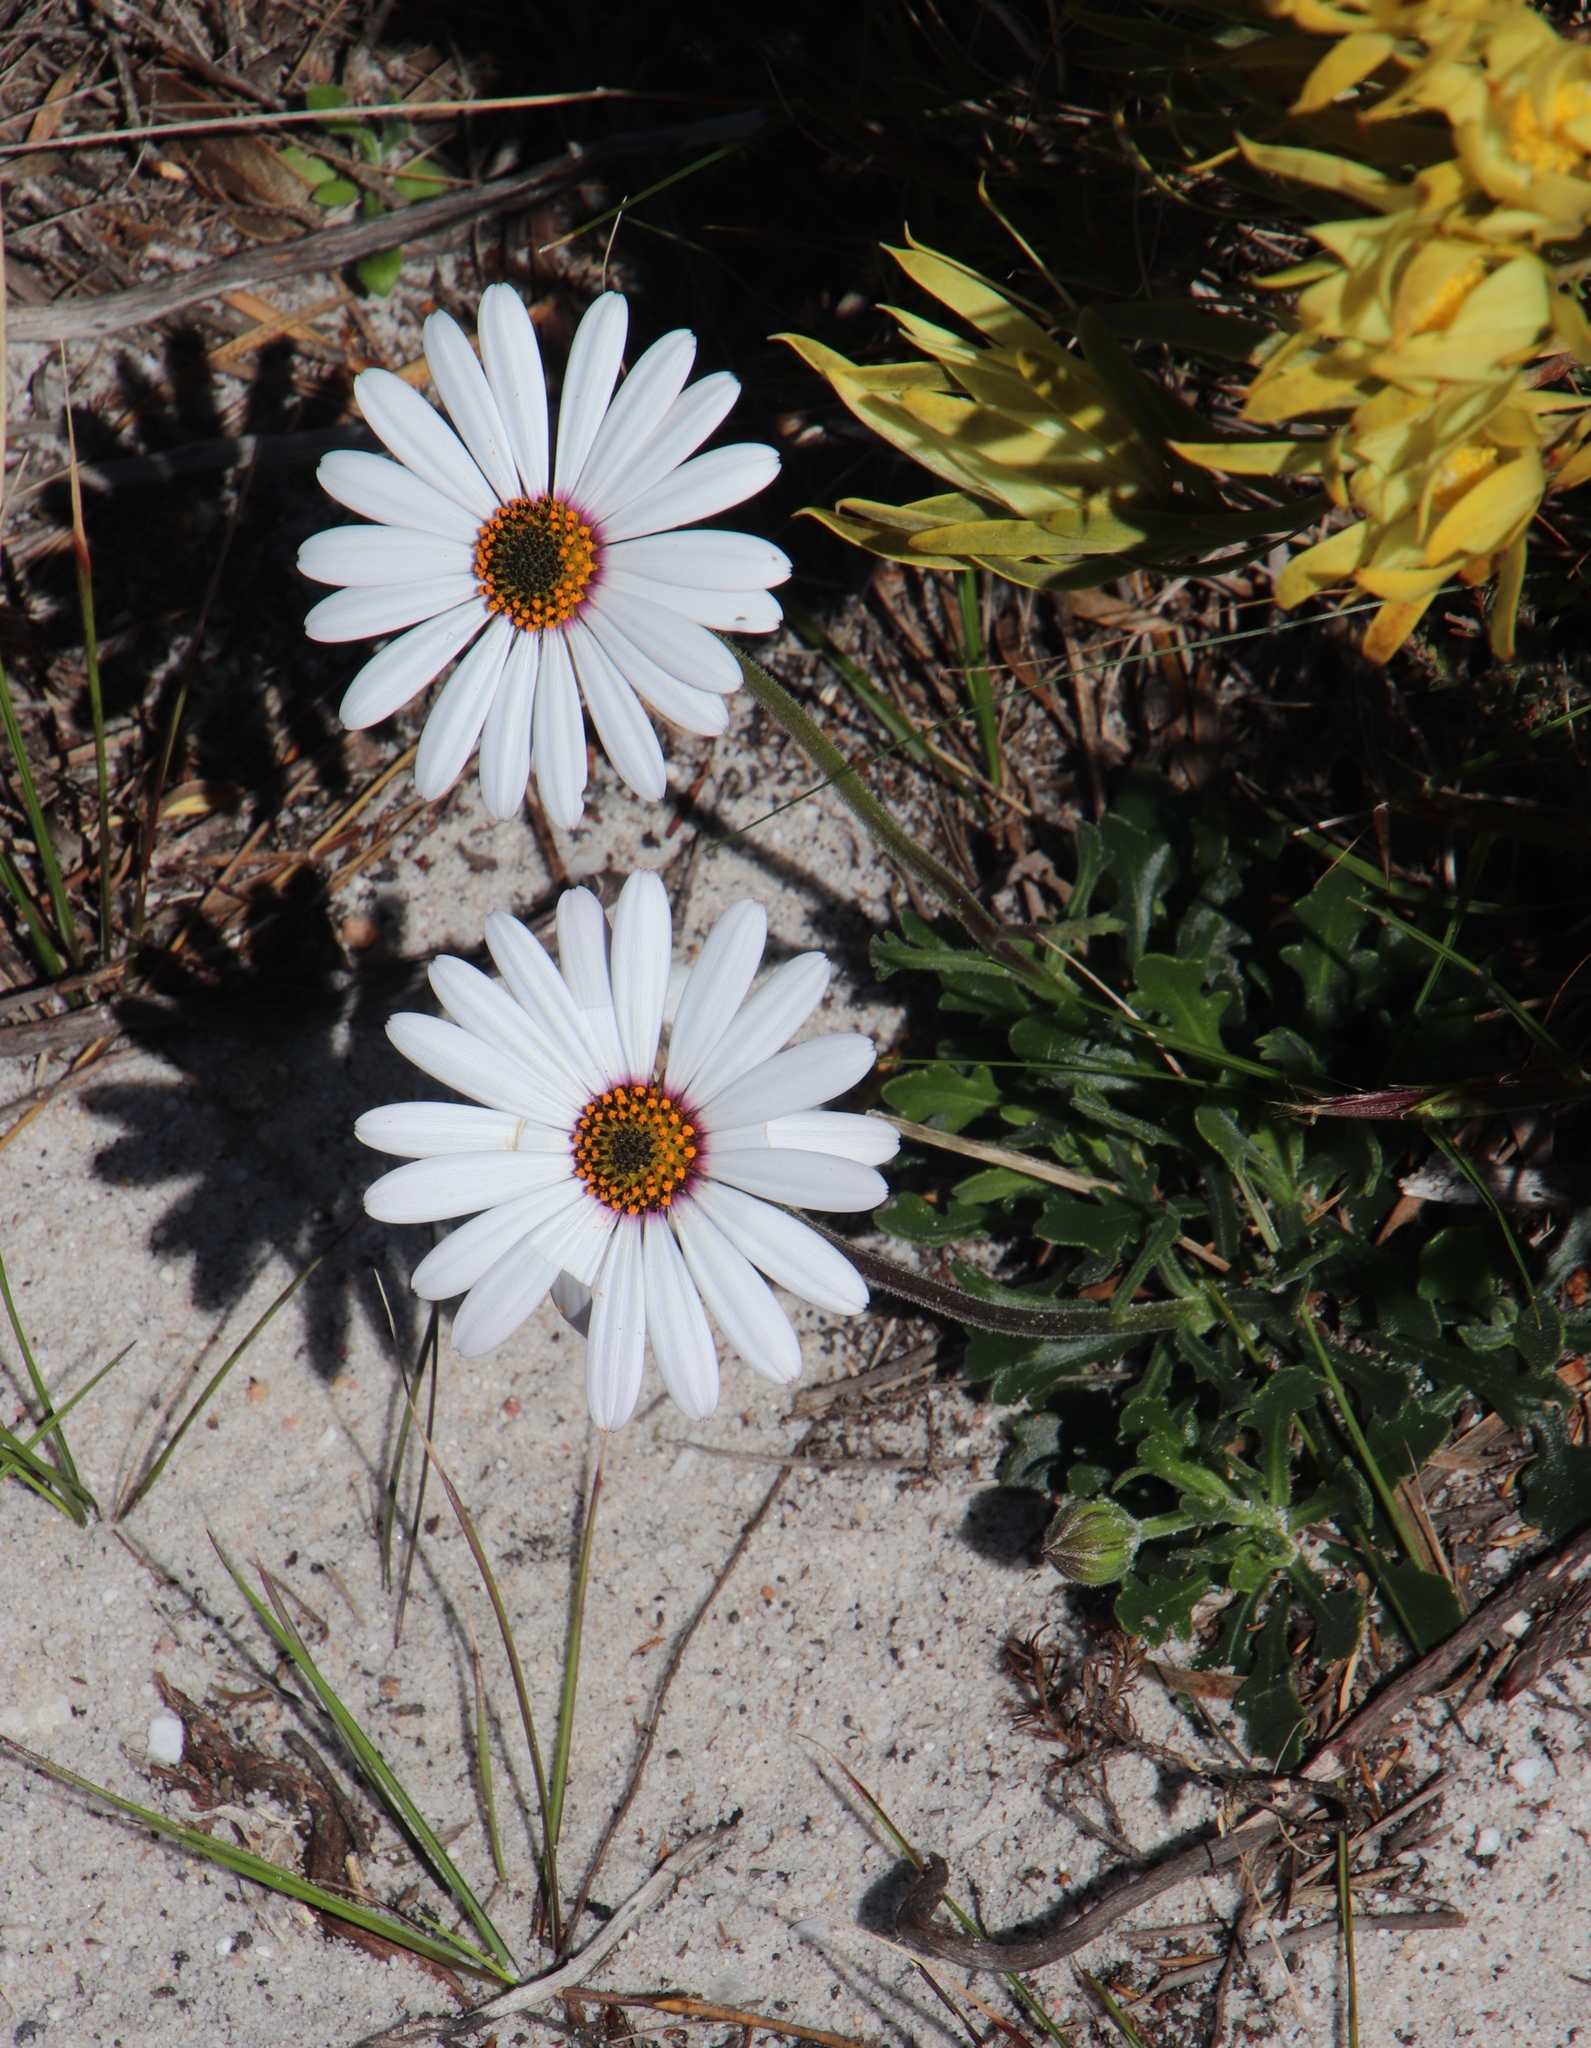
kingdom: Plantae
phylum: Tracheophyta
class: Magnoliopsida
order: Asterales
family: Asteraceae
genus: Dimorphotheca
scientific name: Dimorphotheca nudicaulis
